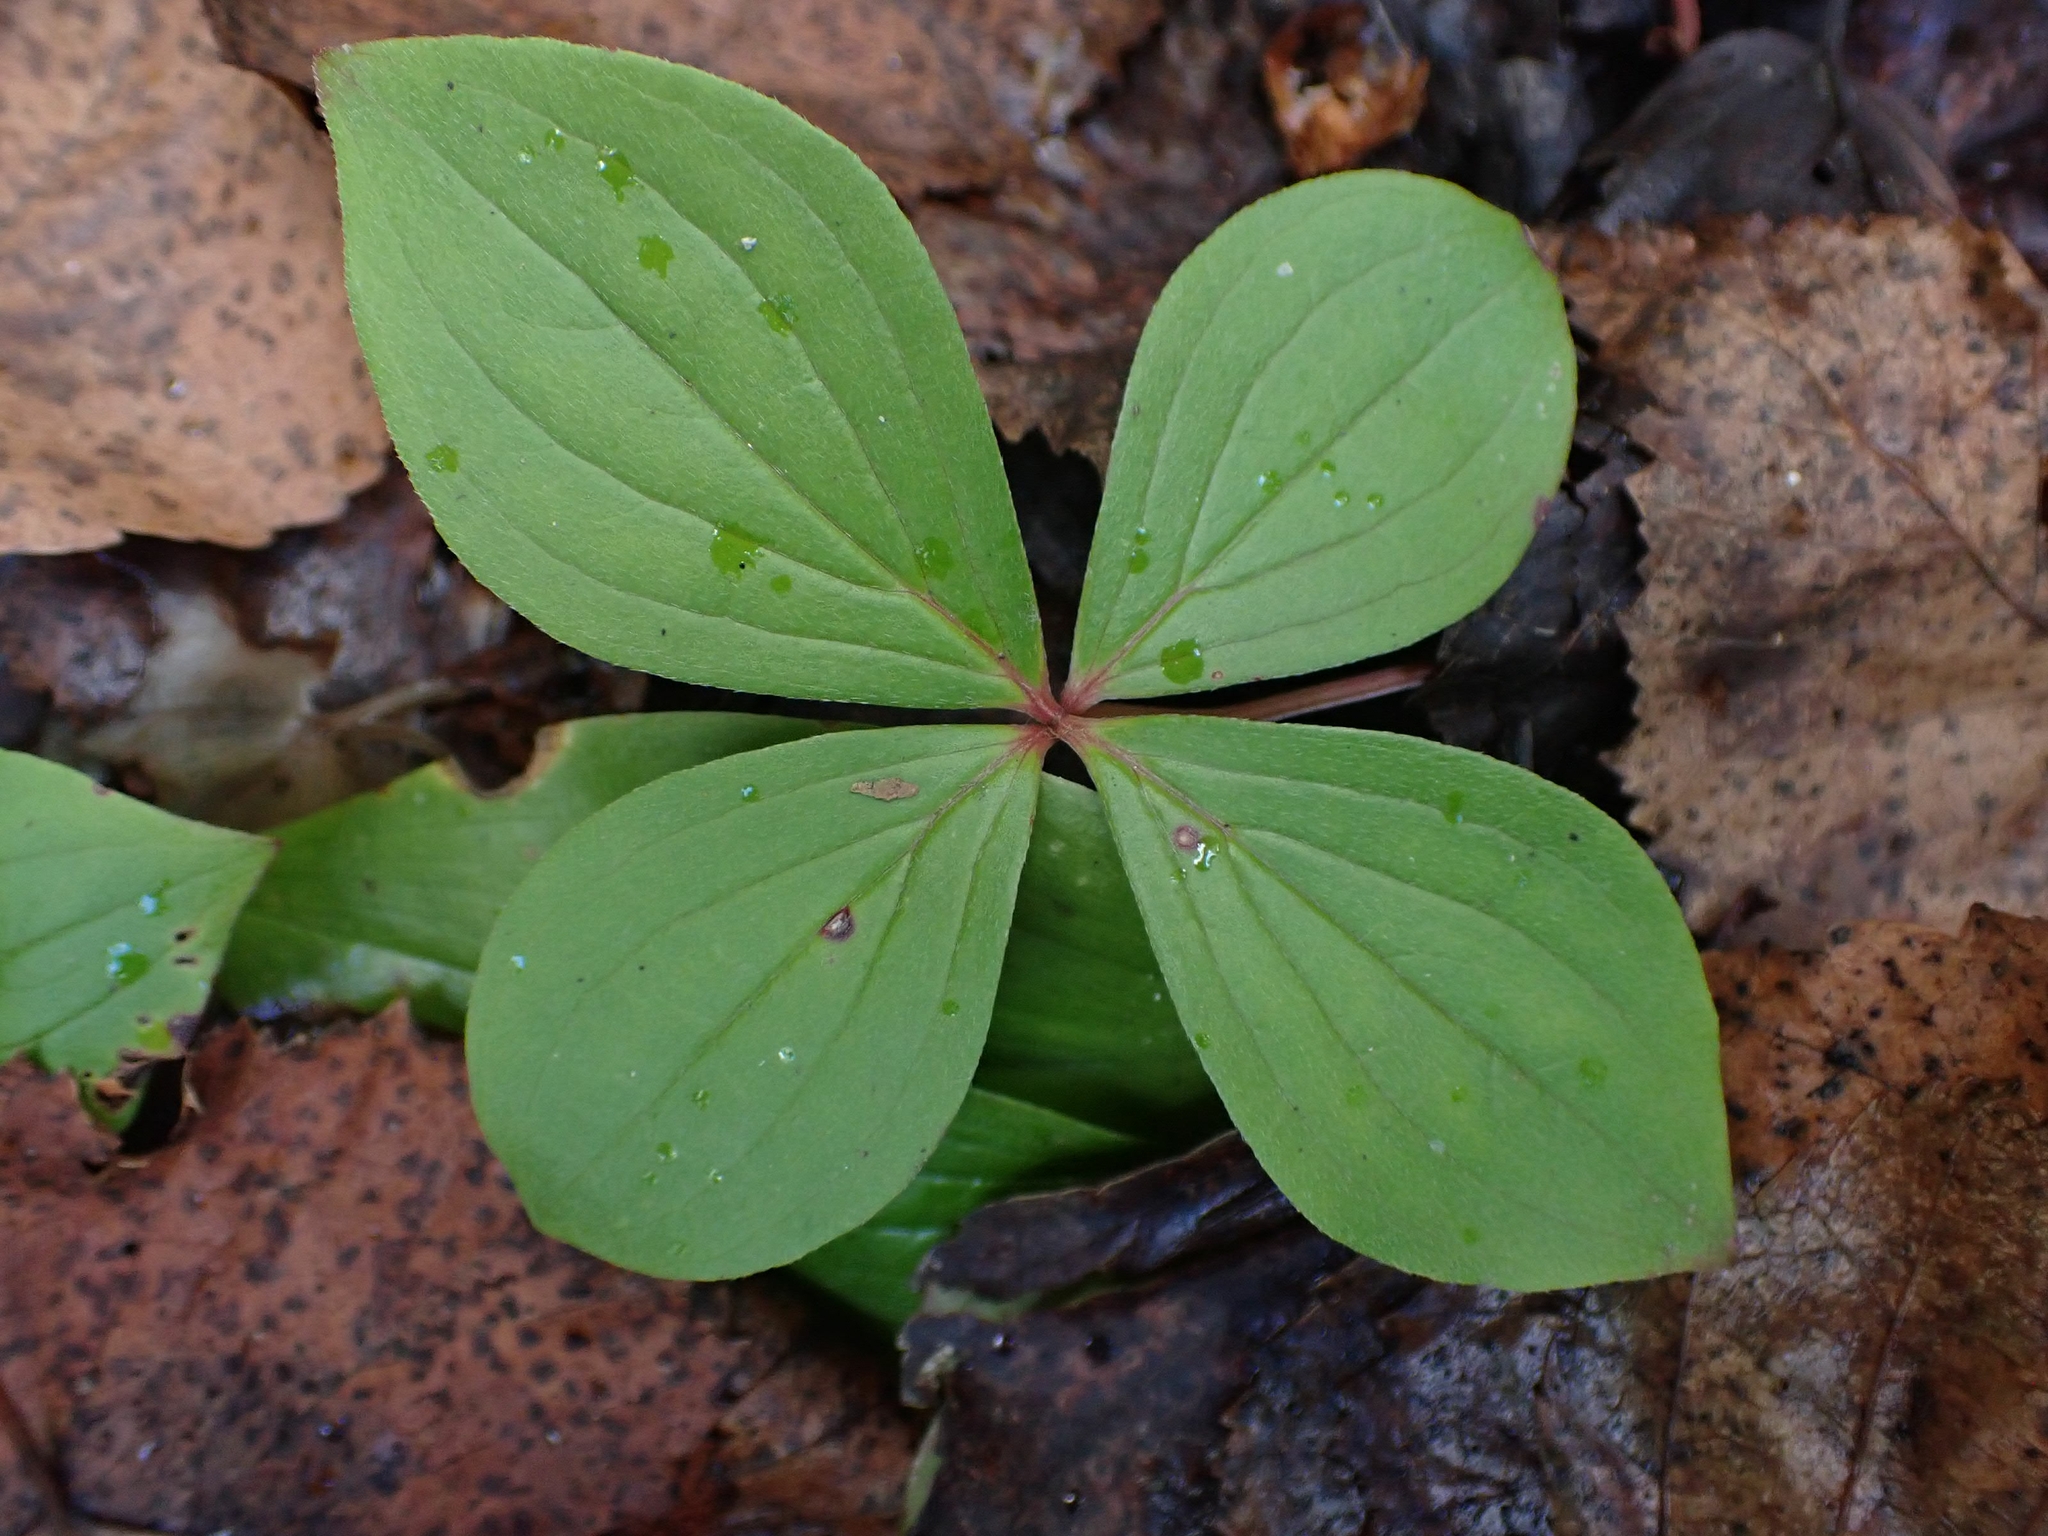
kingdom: Plantae
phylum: Tracheophyta
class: Magnoliopsida
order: Cornales
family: Cornaceae
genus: Cornus
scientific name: Cornus canadensis
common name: Creeping dogwood
